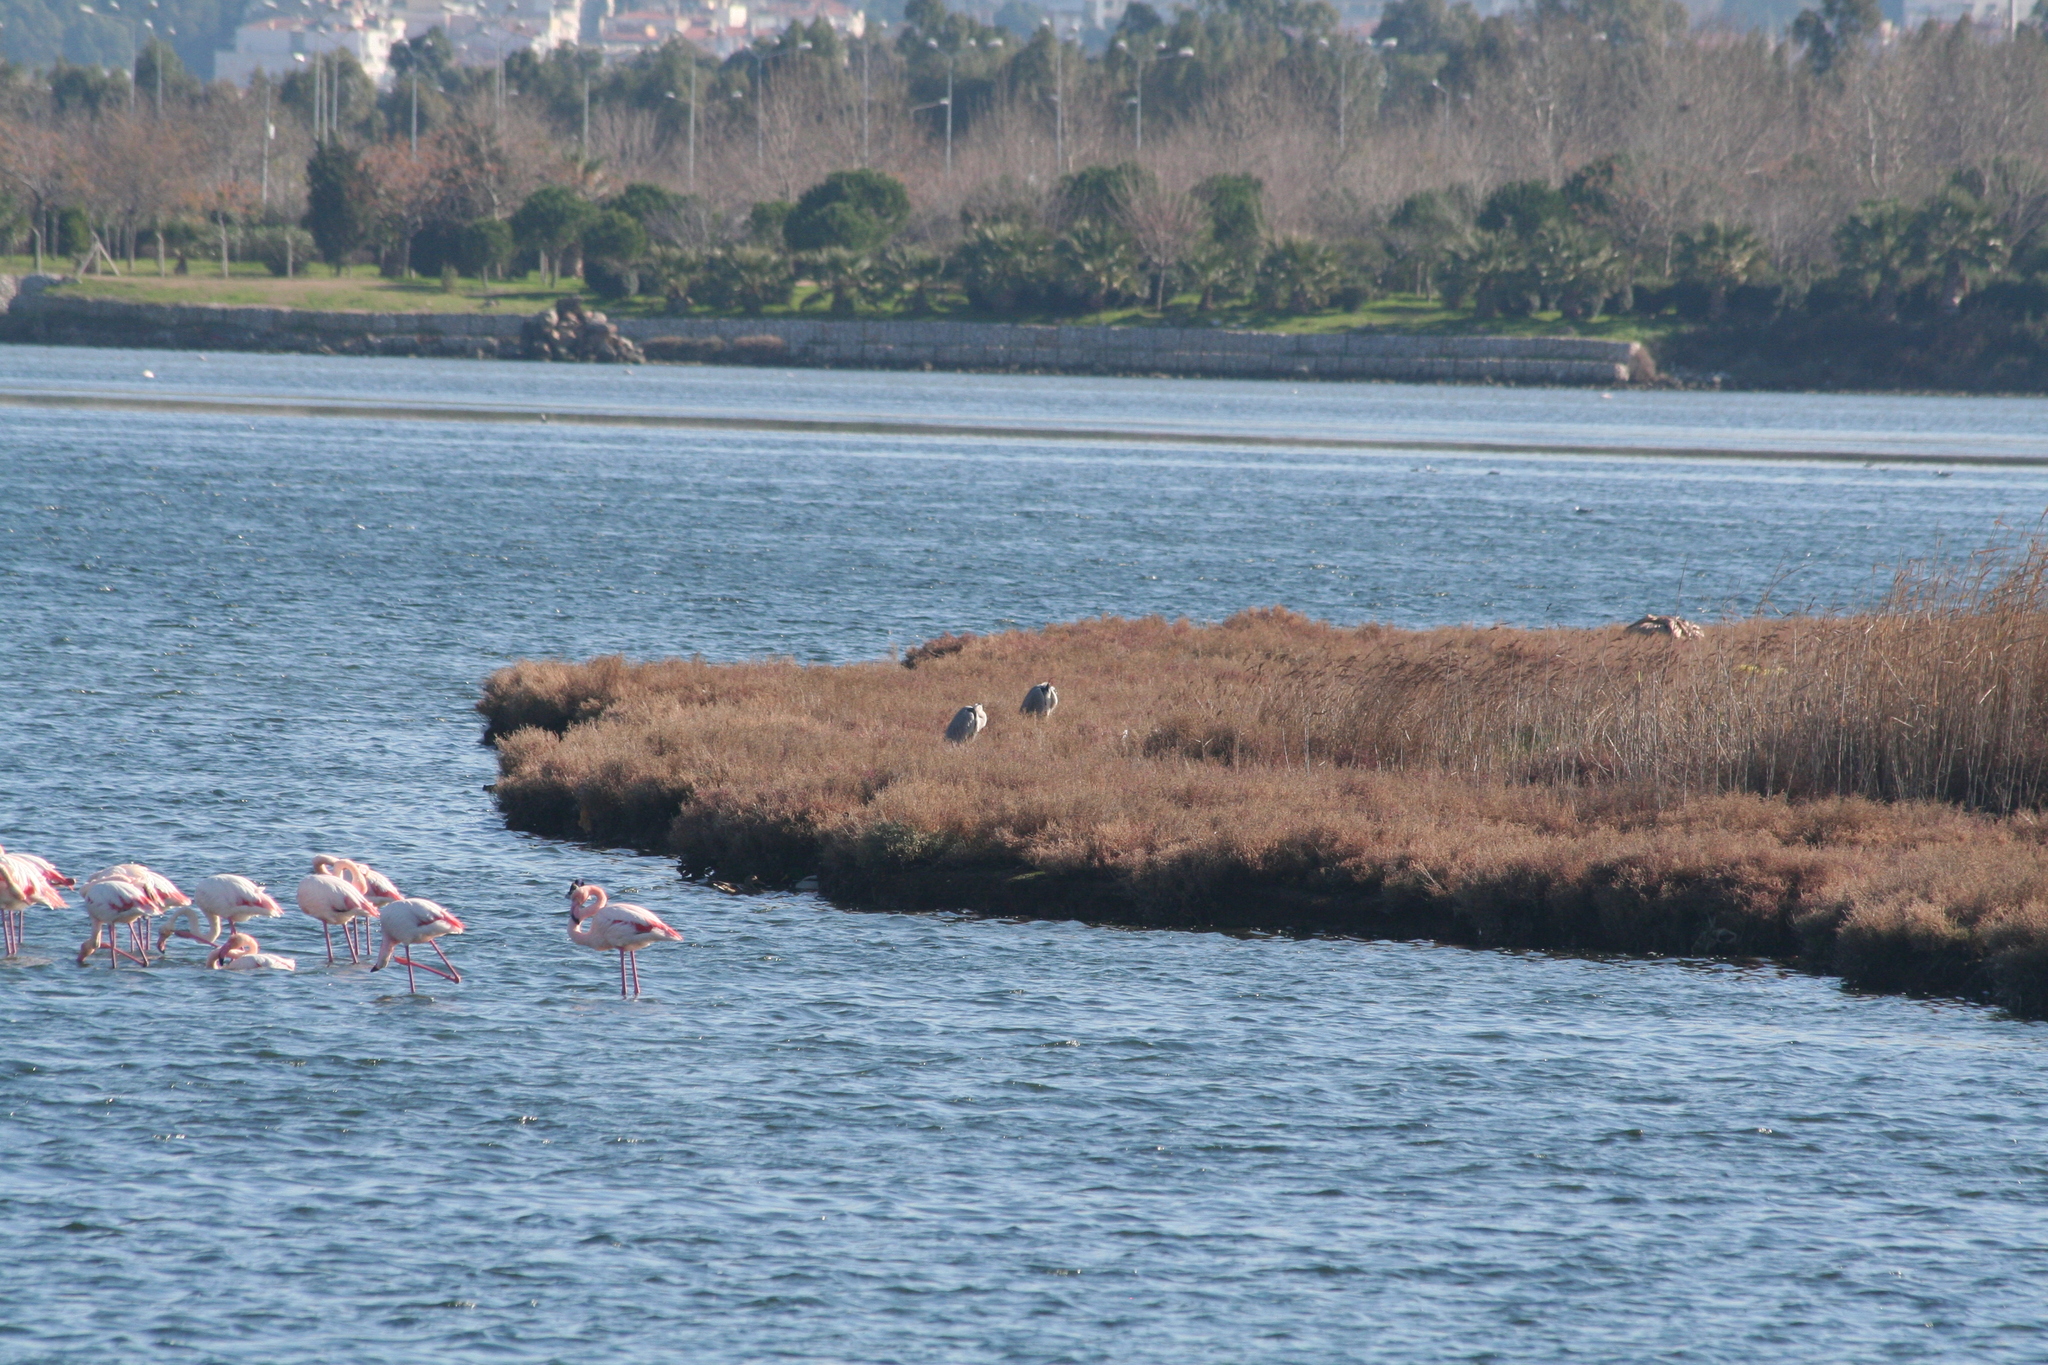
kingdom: Animalia
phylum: Chordata
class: Aves
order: Phoenicopteriformes
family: Phoenicopteridae
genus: Phoenicopterus
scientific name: Phoenicopterus roseus
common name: Greater flamingo
